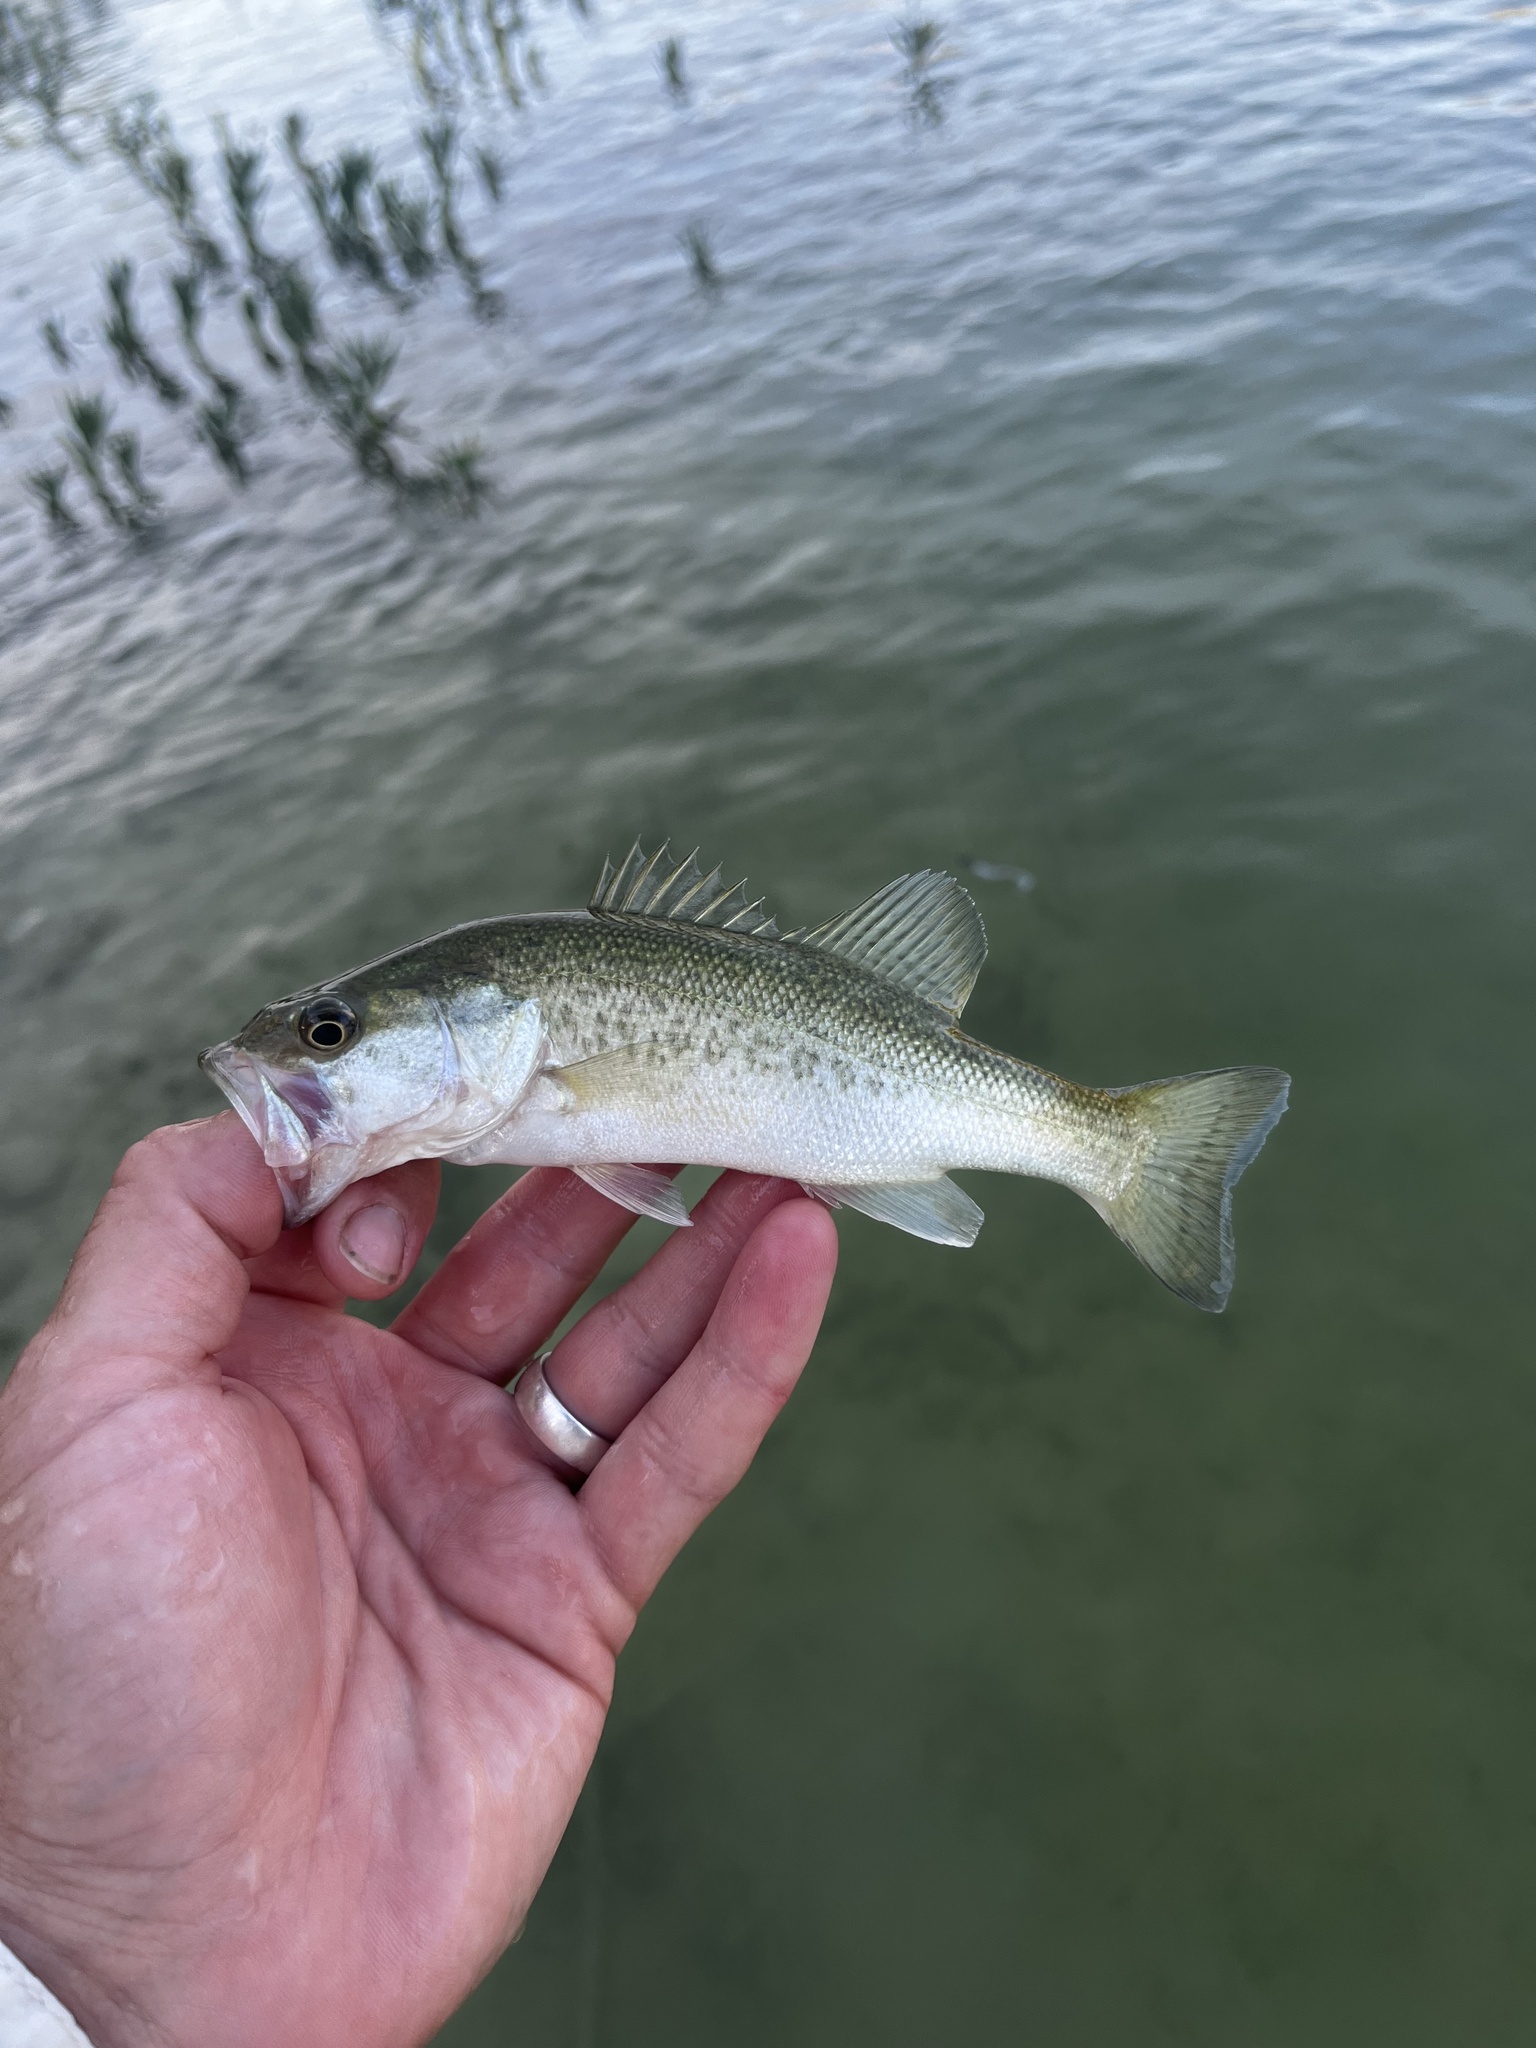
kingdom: Animalia
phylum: Chordata
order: Perciformes
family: Centrarchidae
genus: Micropterus
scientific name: Micropterus
